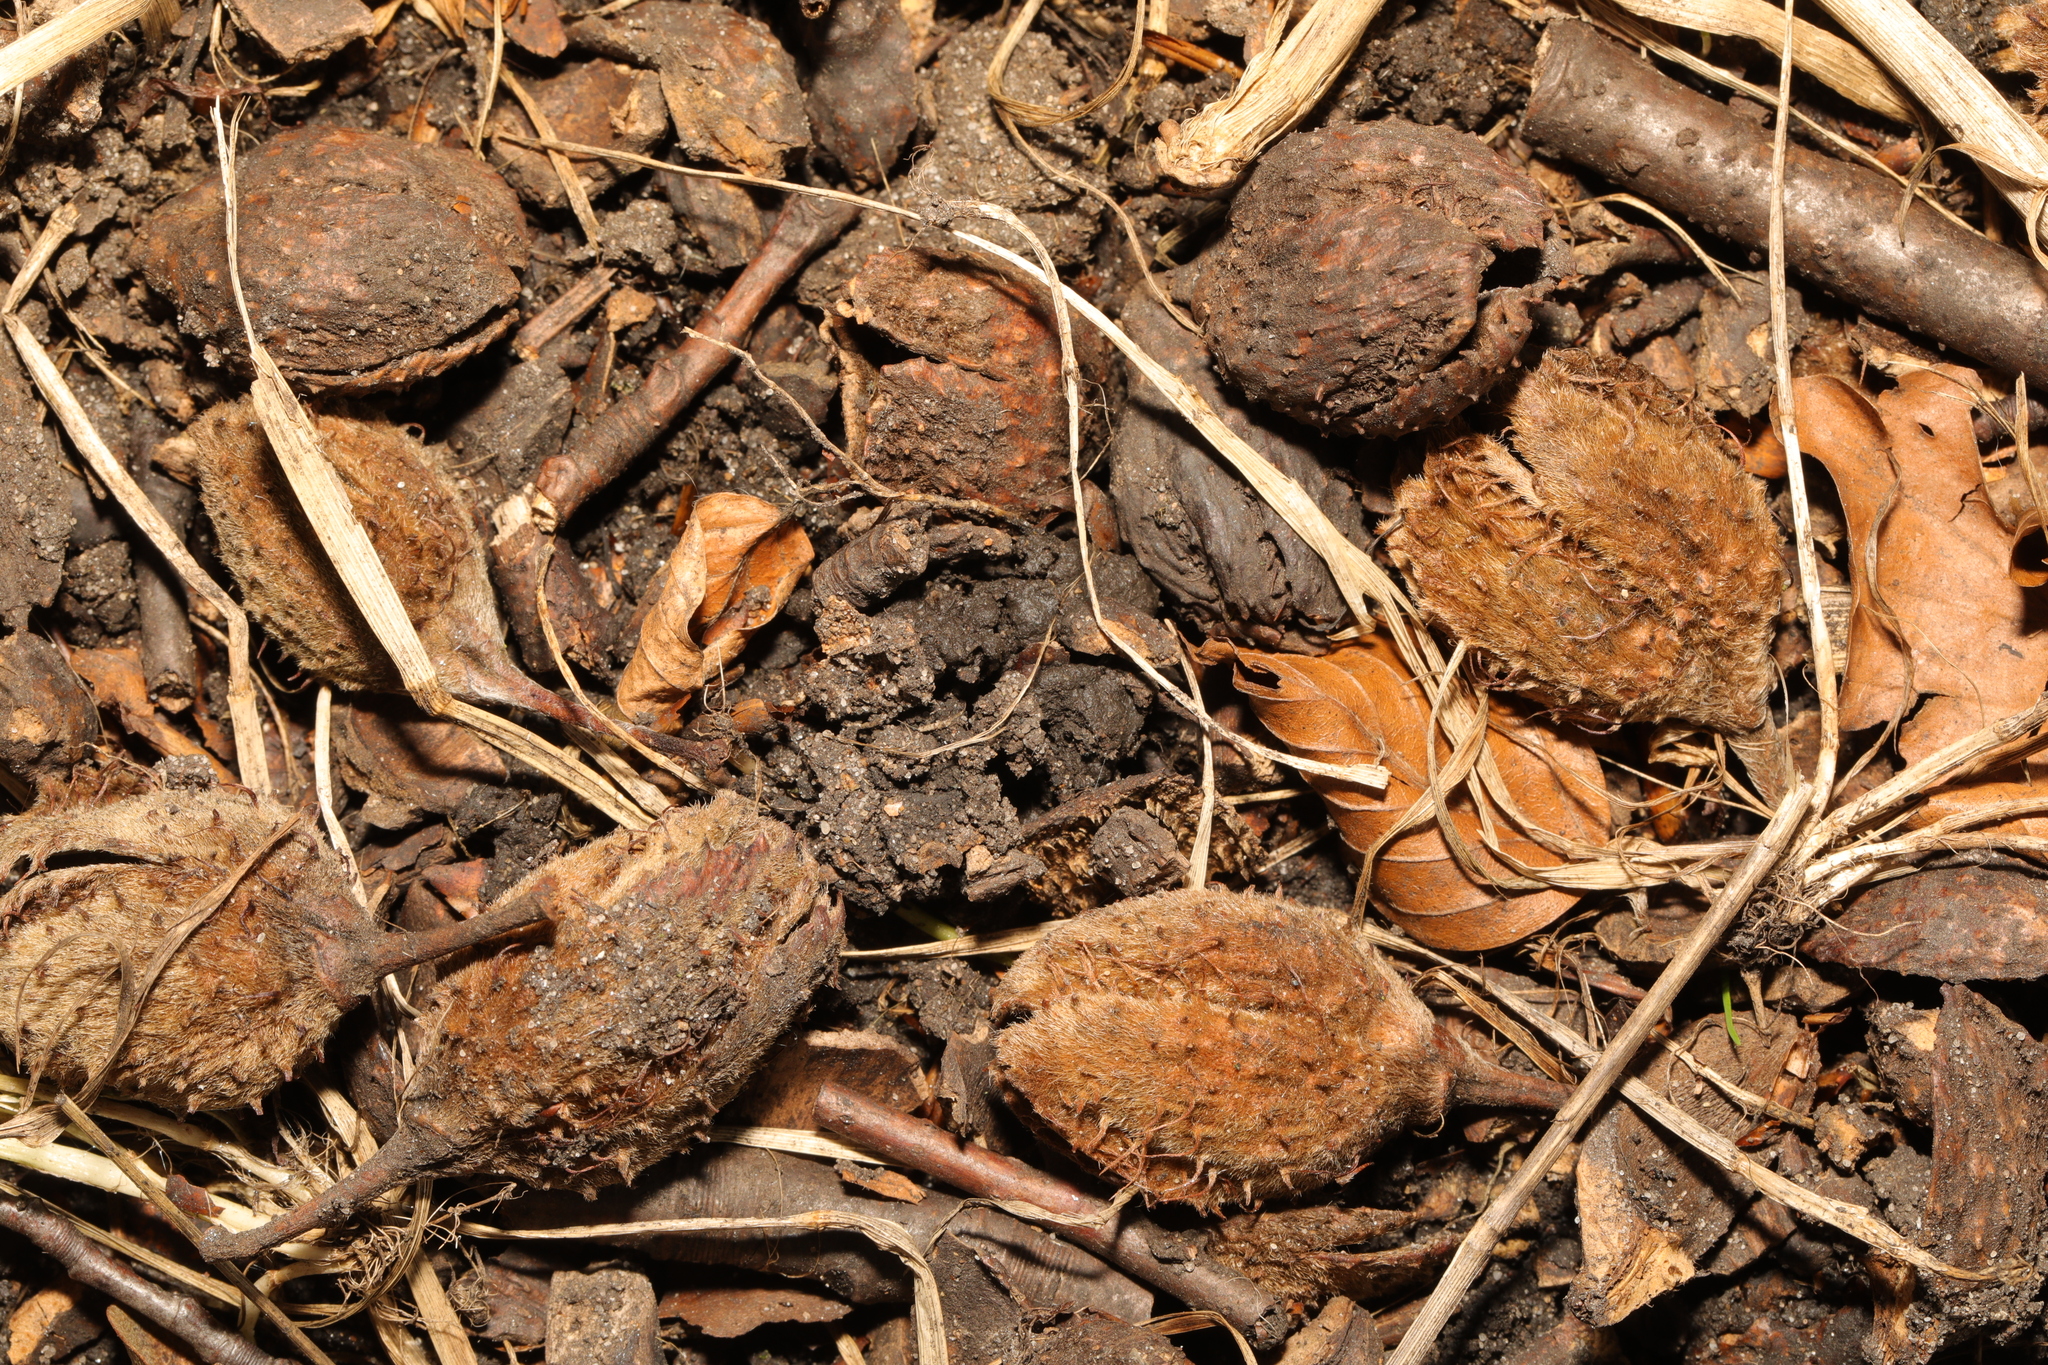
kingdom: Plantae
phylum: Tracheophyta
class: Magnoliopsida
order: Fagales
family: Fagaceae
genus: Fagus
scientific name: Fagus sylvatica
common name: Beech
